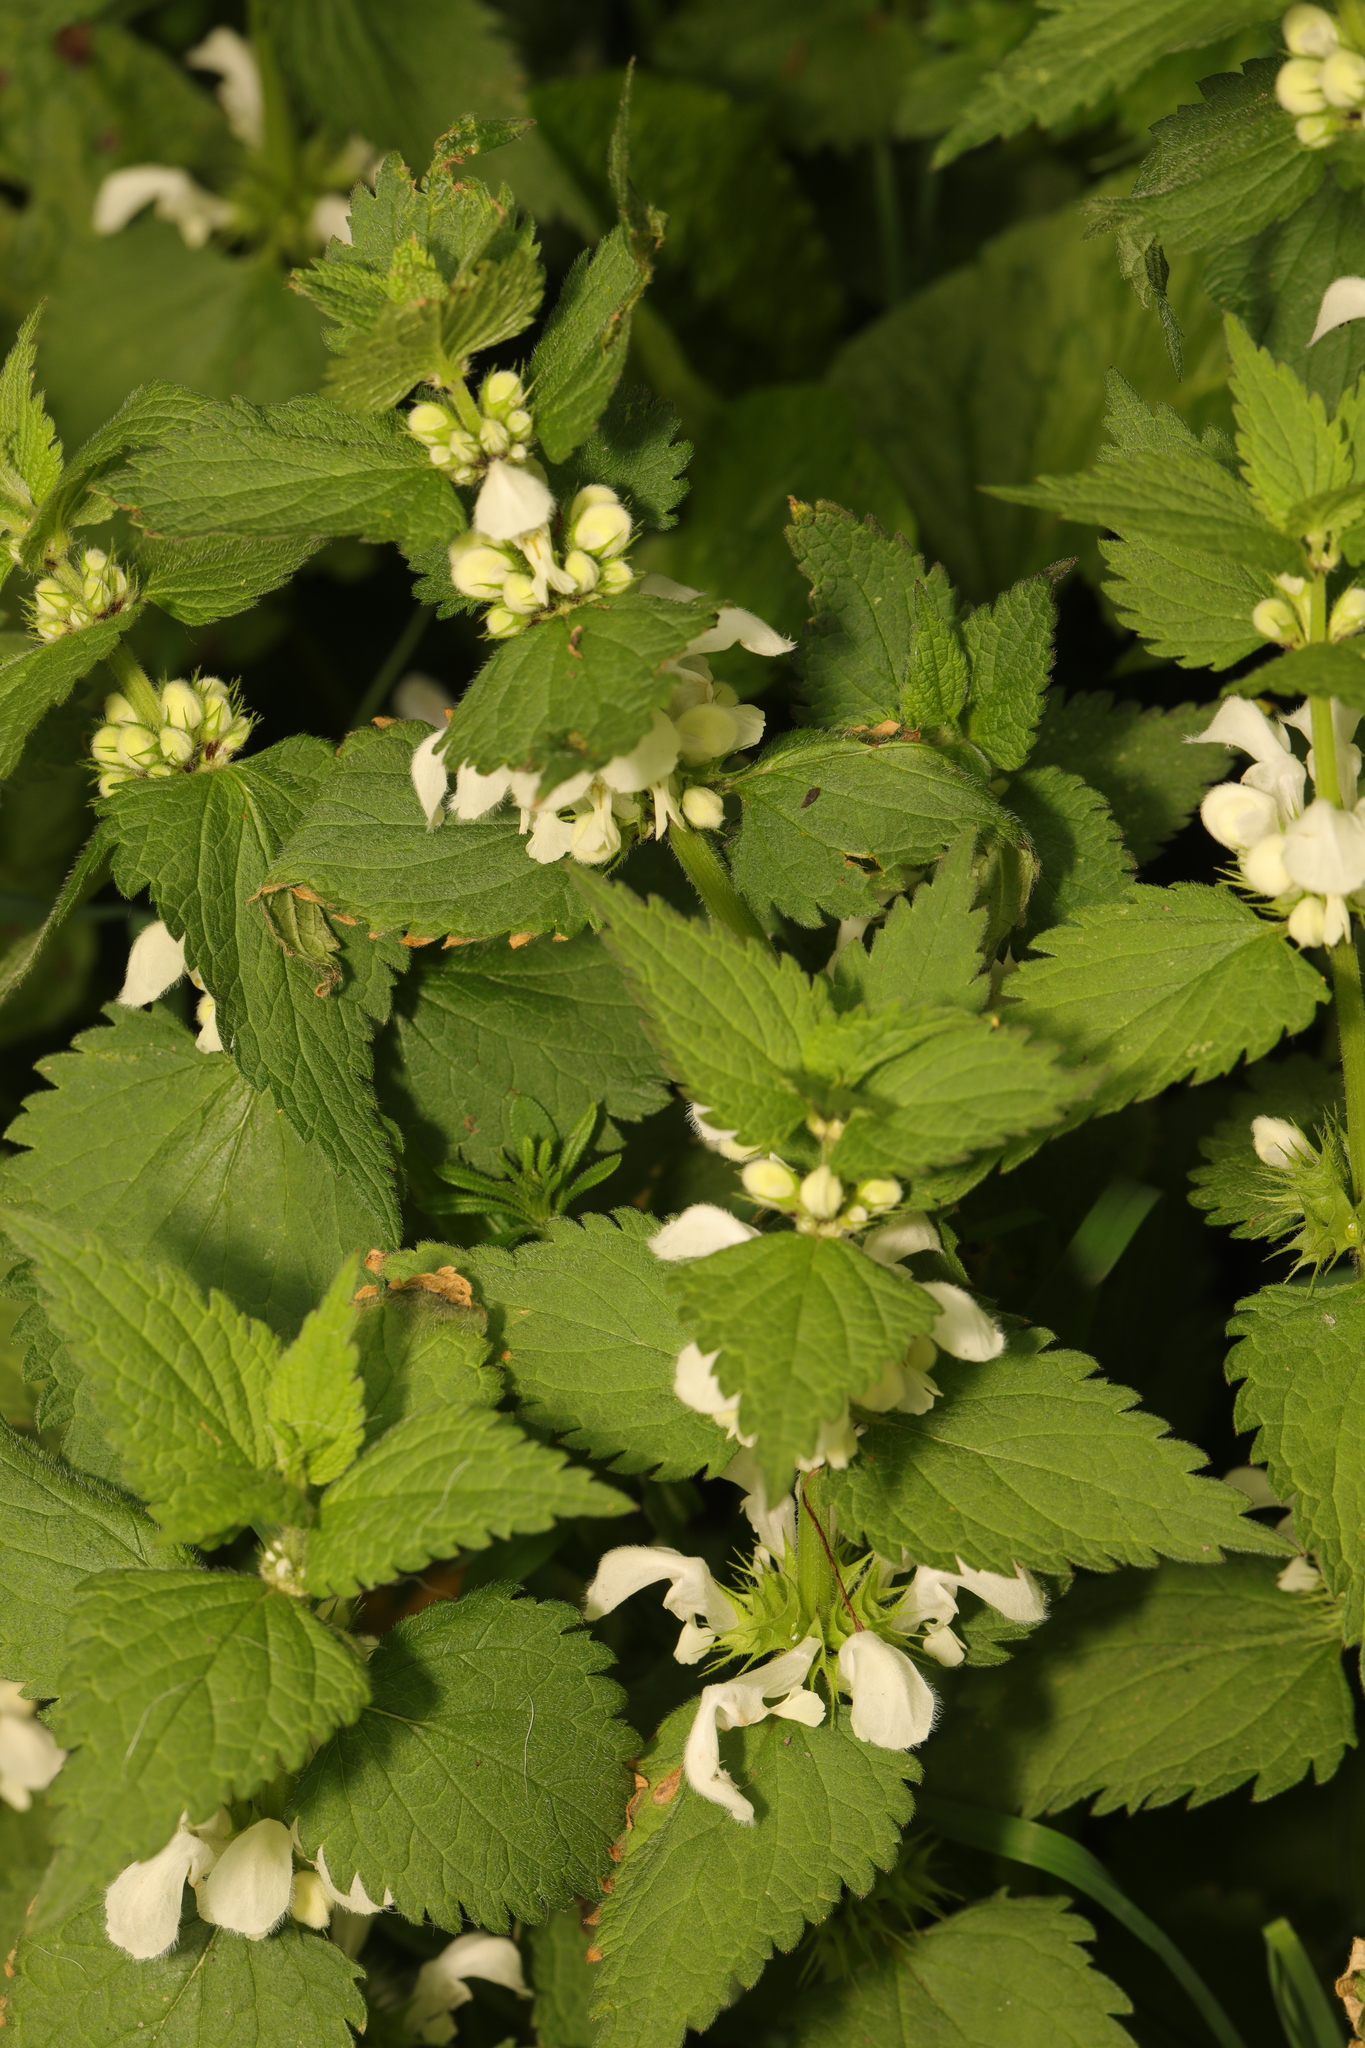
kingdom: Plantae
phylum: Tracheophyta
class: Magnoliopsida
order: Lamiales
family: Lamiaceae
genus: Lamium
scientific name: Lamium album
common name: White dead-nettle
